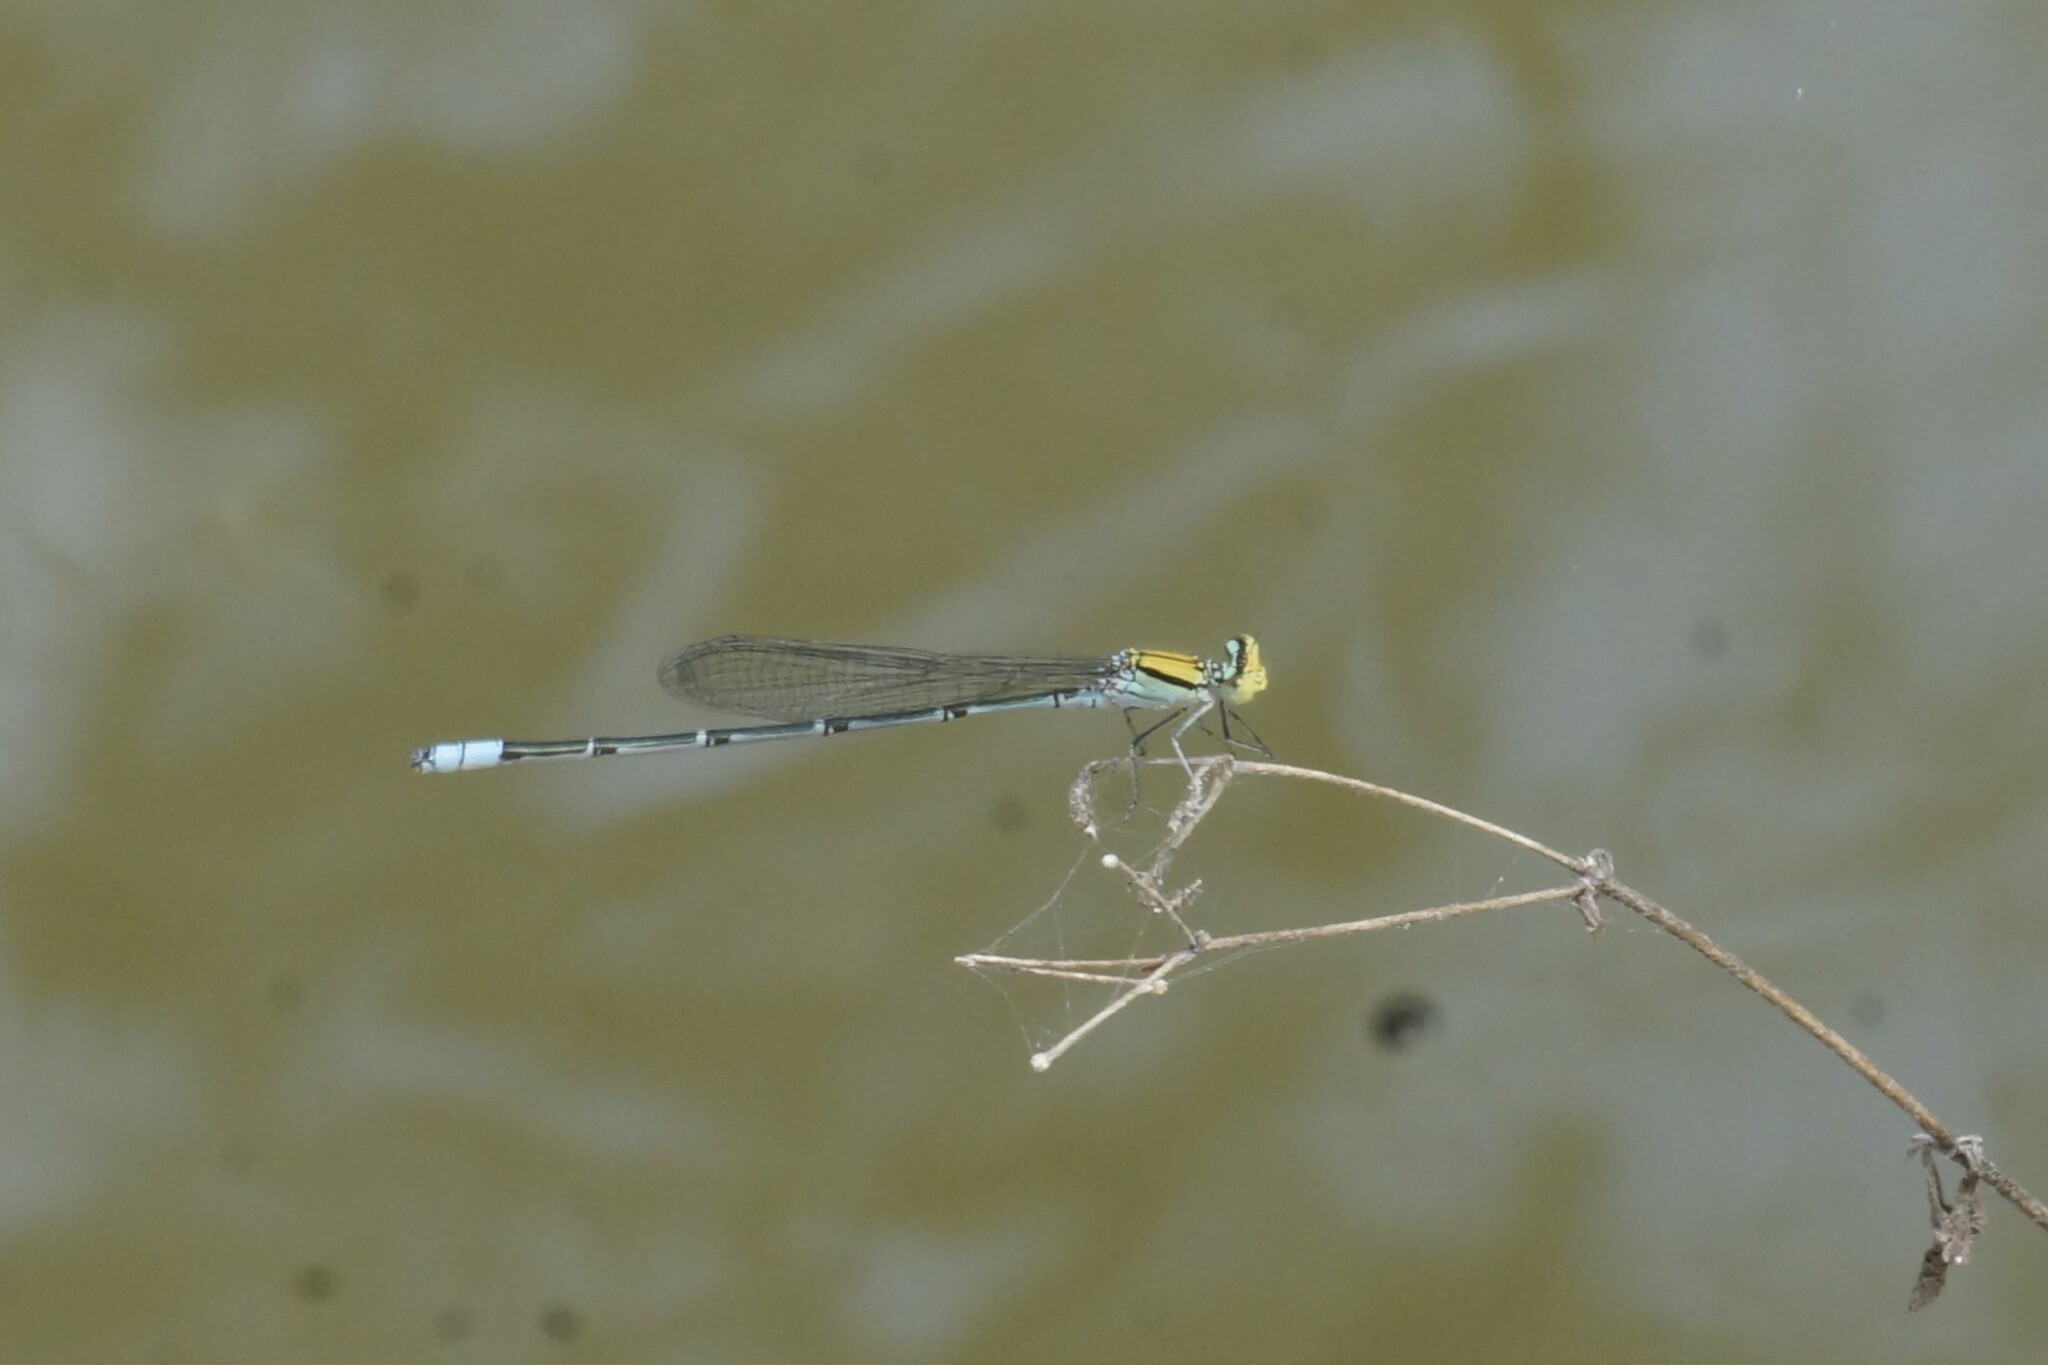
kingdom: Animalia
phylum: Arthropoda
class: Insecta
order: Odonata
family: Coenagrionidae
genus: Pseudagrion
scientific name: Pseudagrion aureofrons
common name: Gold-fronted riverdamsel
